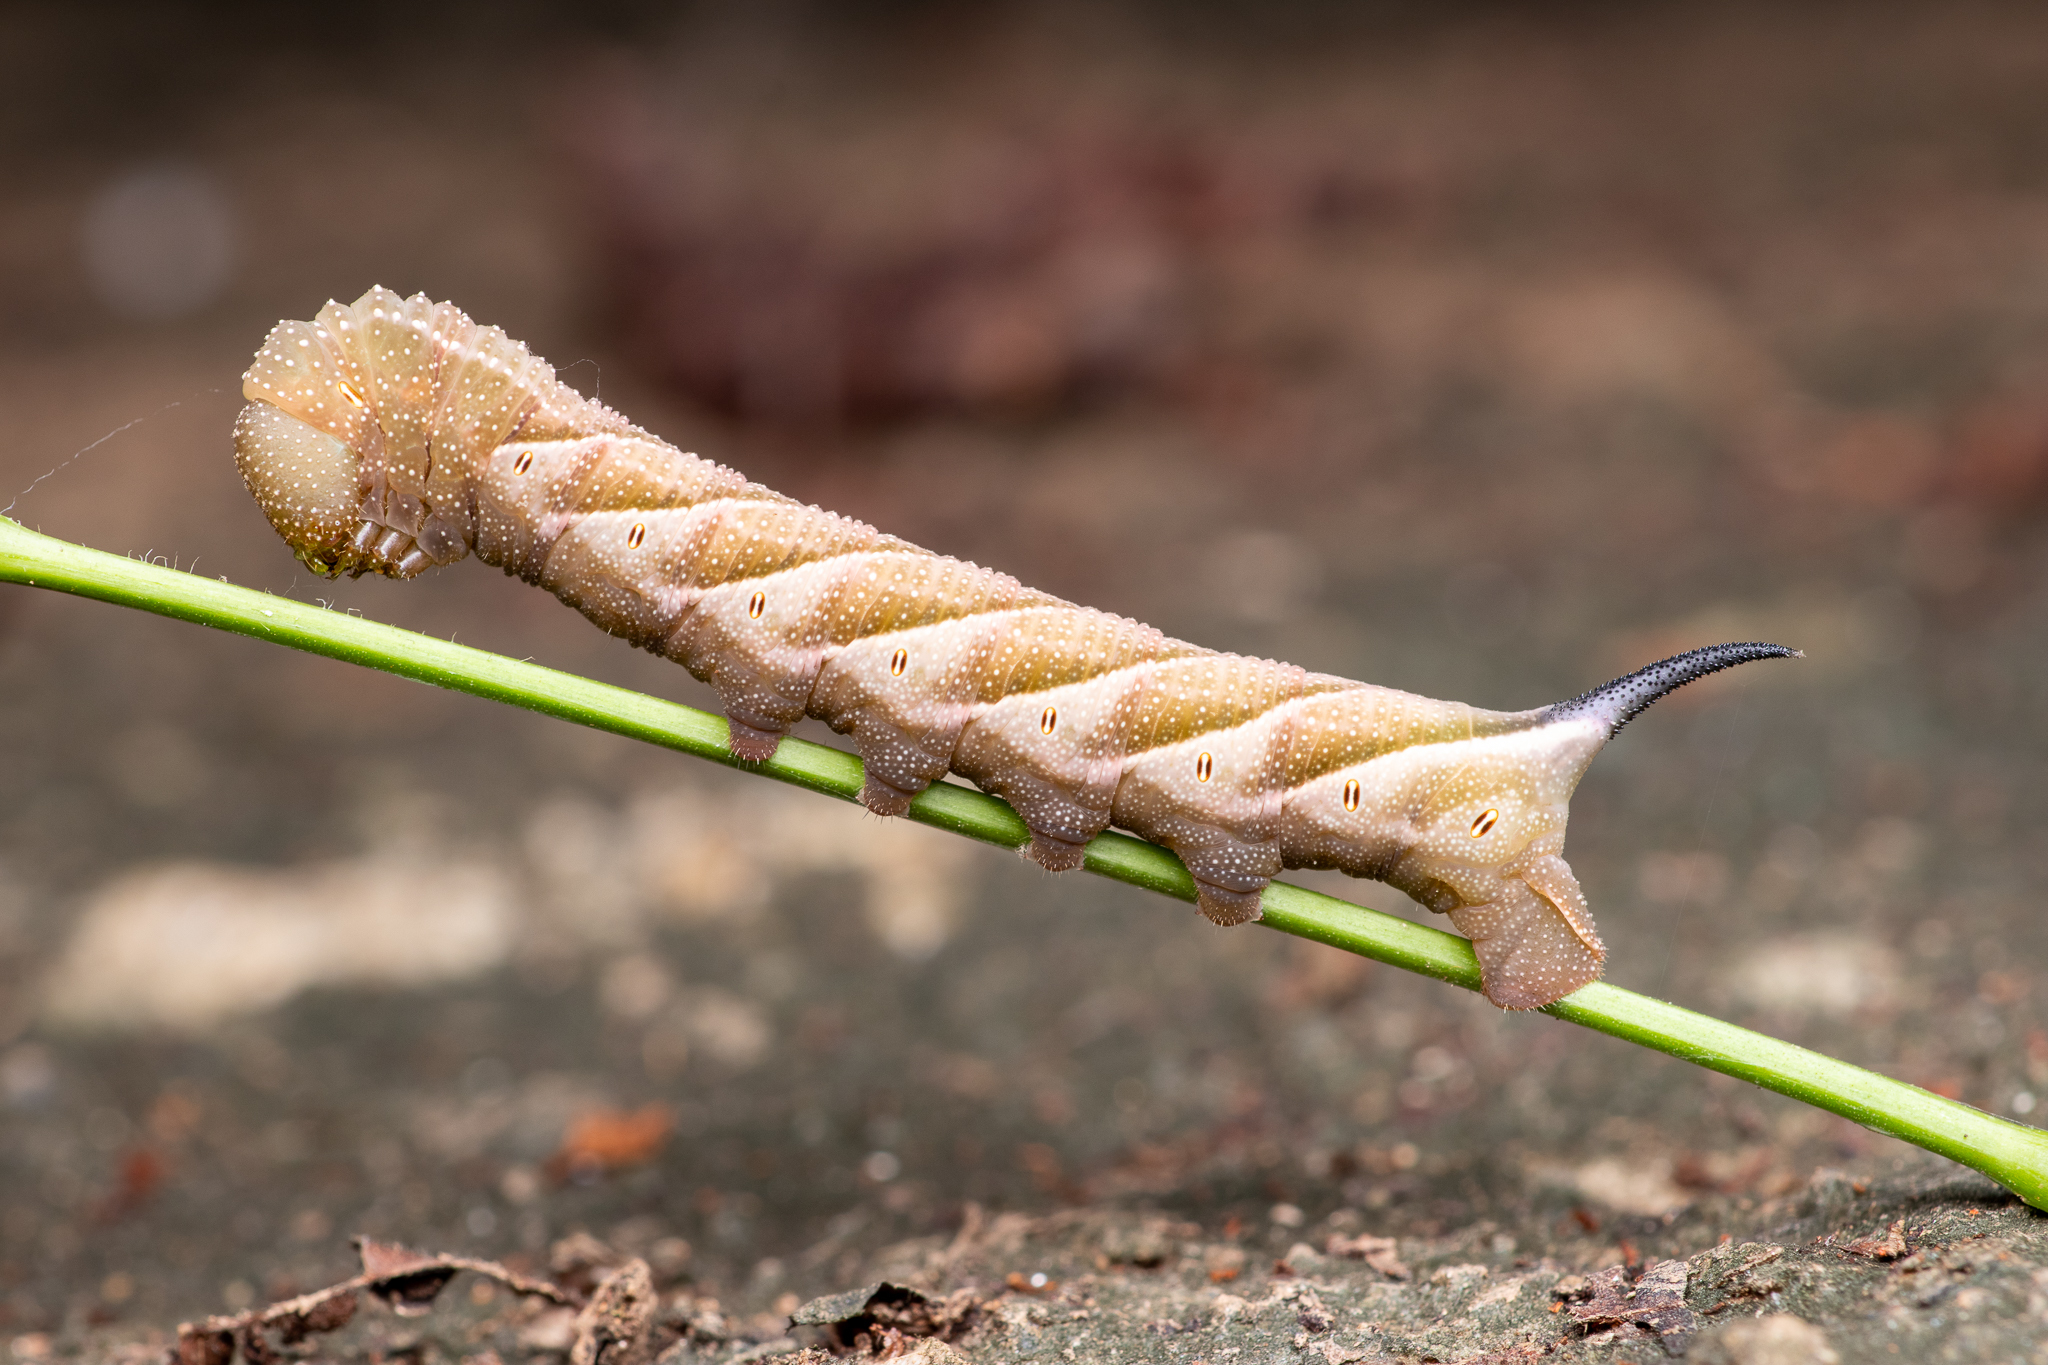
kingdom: Animalia
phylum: Arthropoda
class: Insecta
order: Lepidoptera
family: Sphingidae
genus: Paratrea
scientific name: Paratrea plebeja
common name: Plebian sphinx
